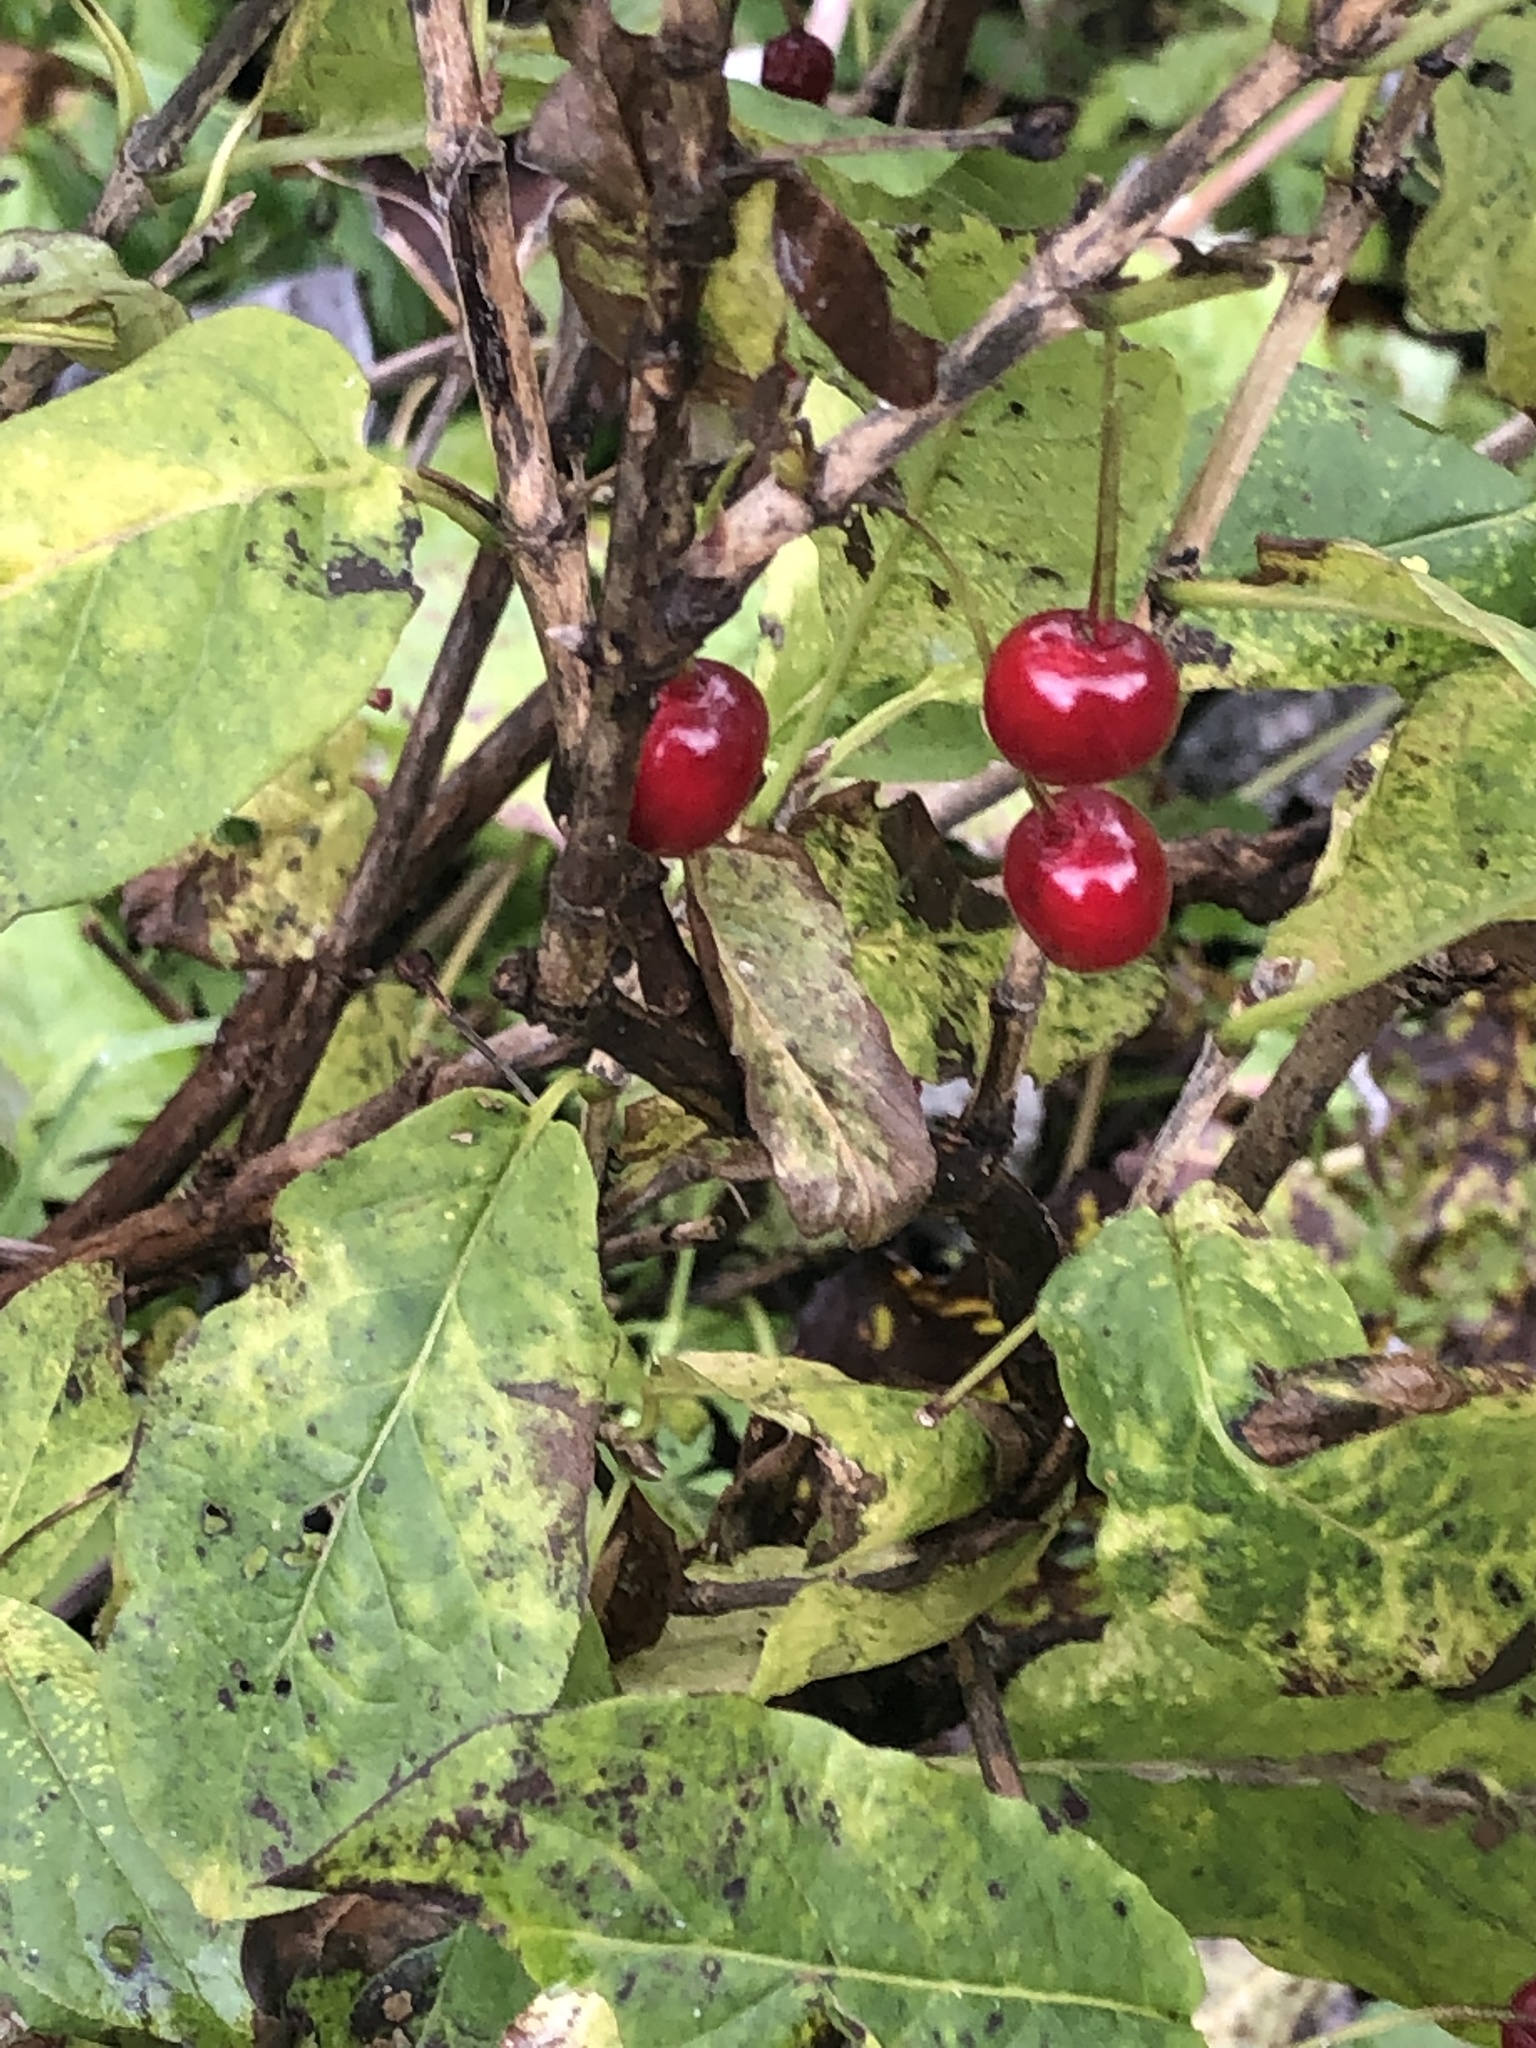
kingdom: Plantae
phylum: Tracheophyta
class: Magnoliopsida
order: Dipsacales
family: Caprifoliaceae
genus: Lonicera
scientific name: Lonicera alpigena
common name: Alpine honeysuckle
